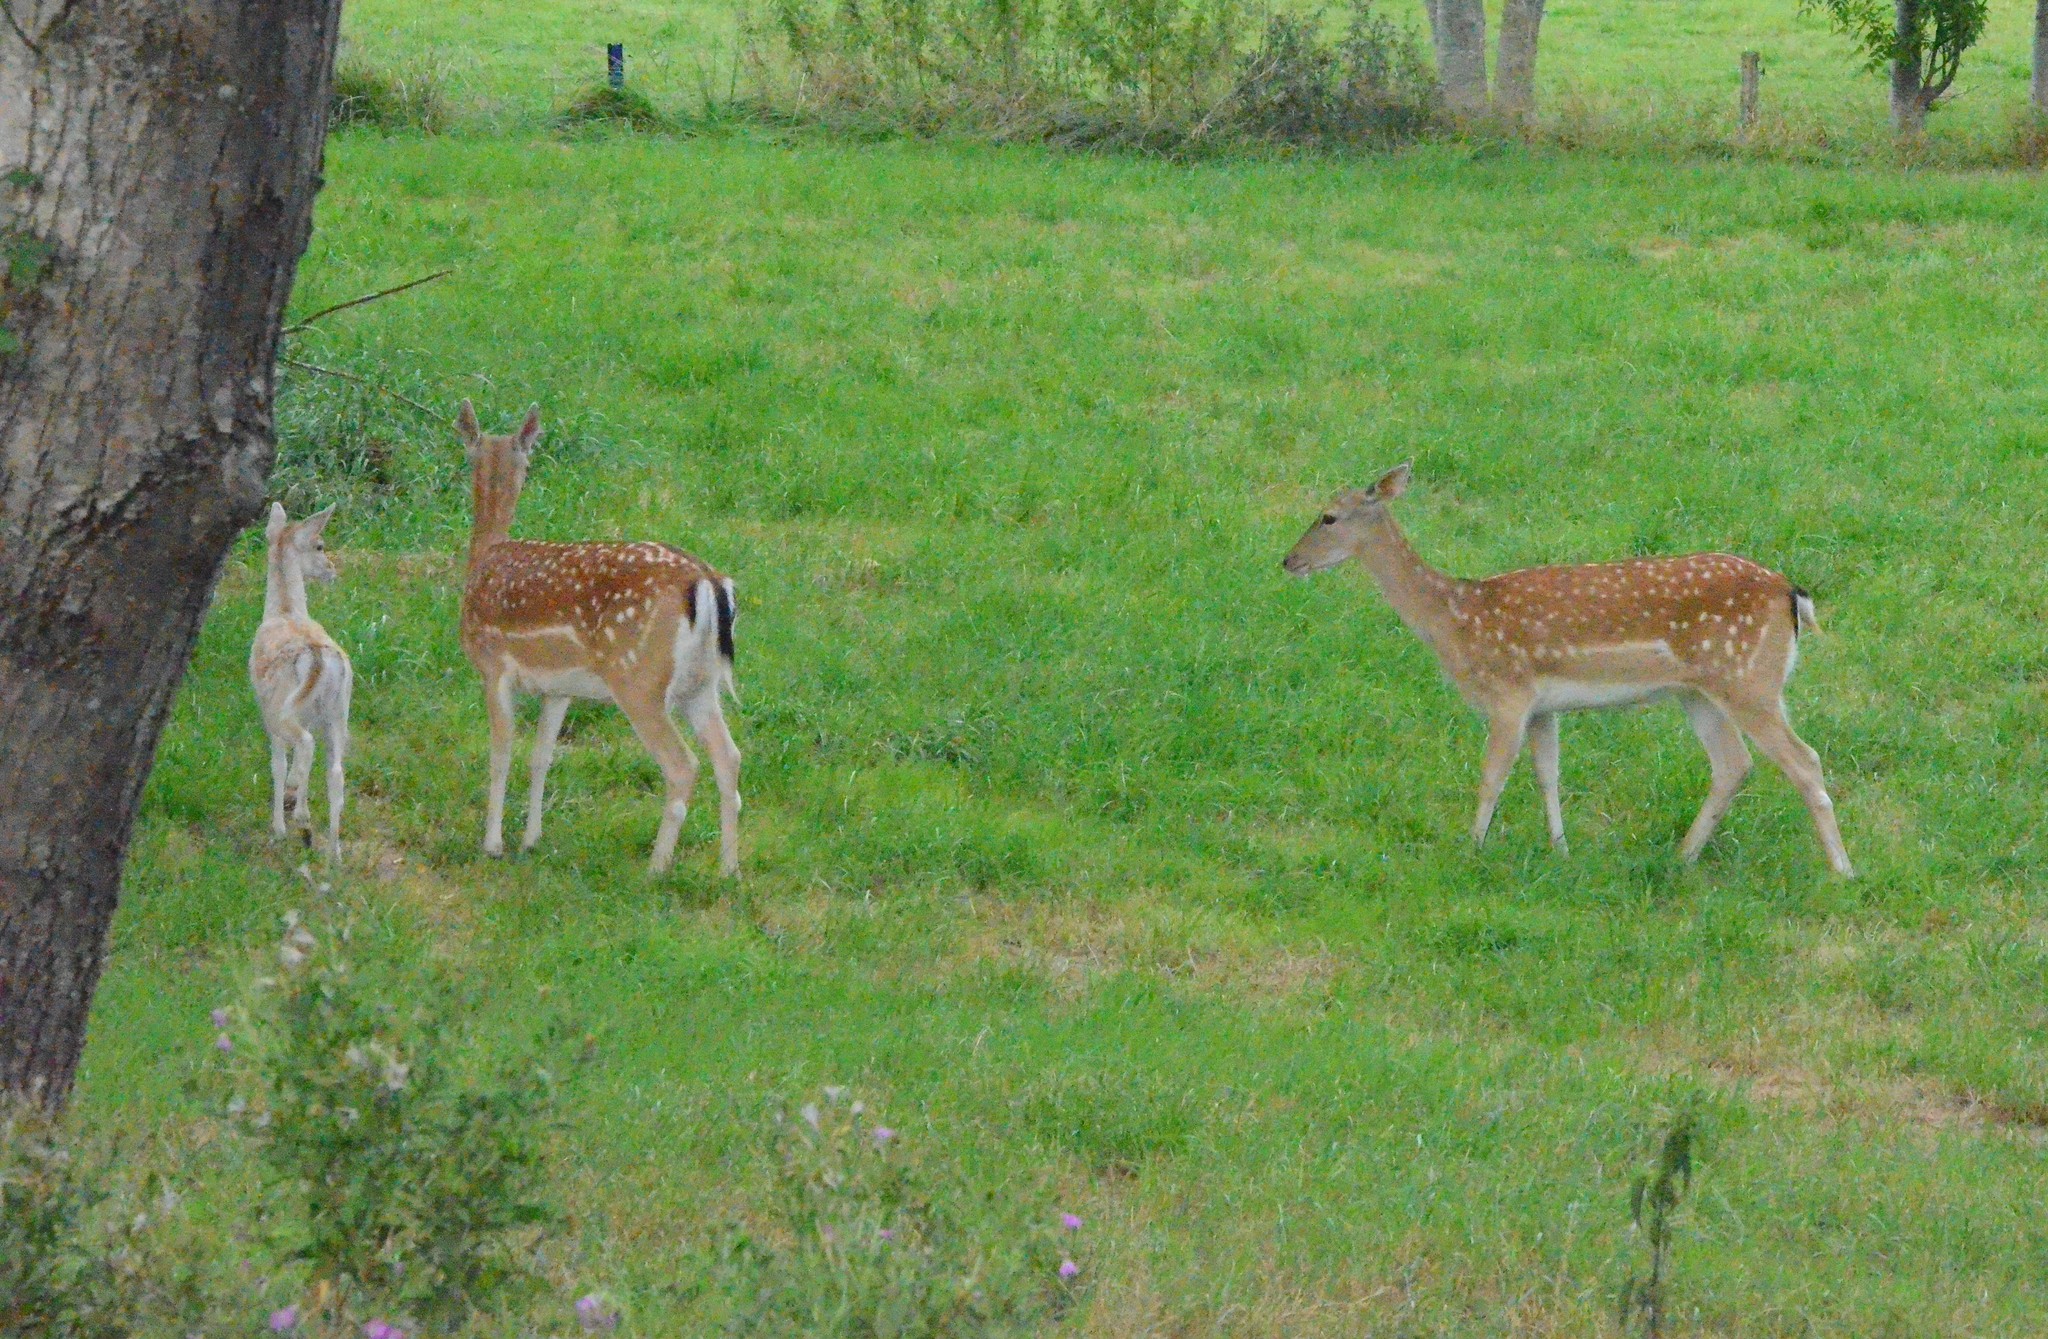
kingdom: Animalia
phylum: Chordata
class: Mammalia
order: Artiodactyla
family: Cervidae
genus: Dama
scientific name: Dama dama
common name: Fallow deer
